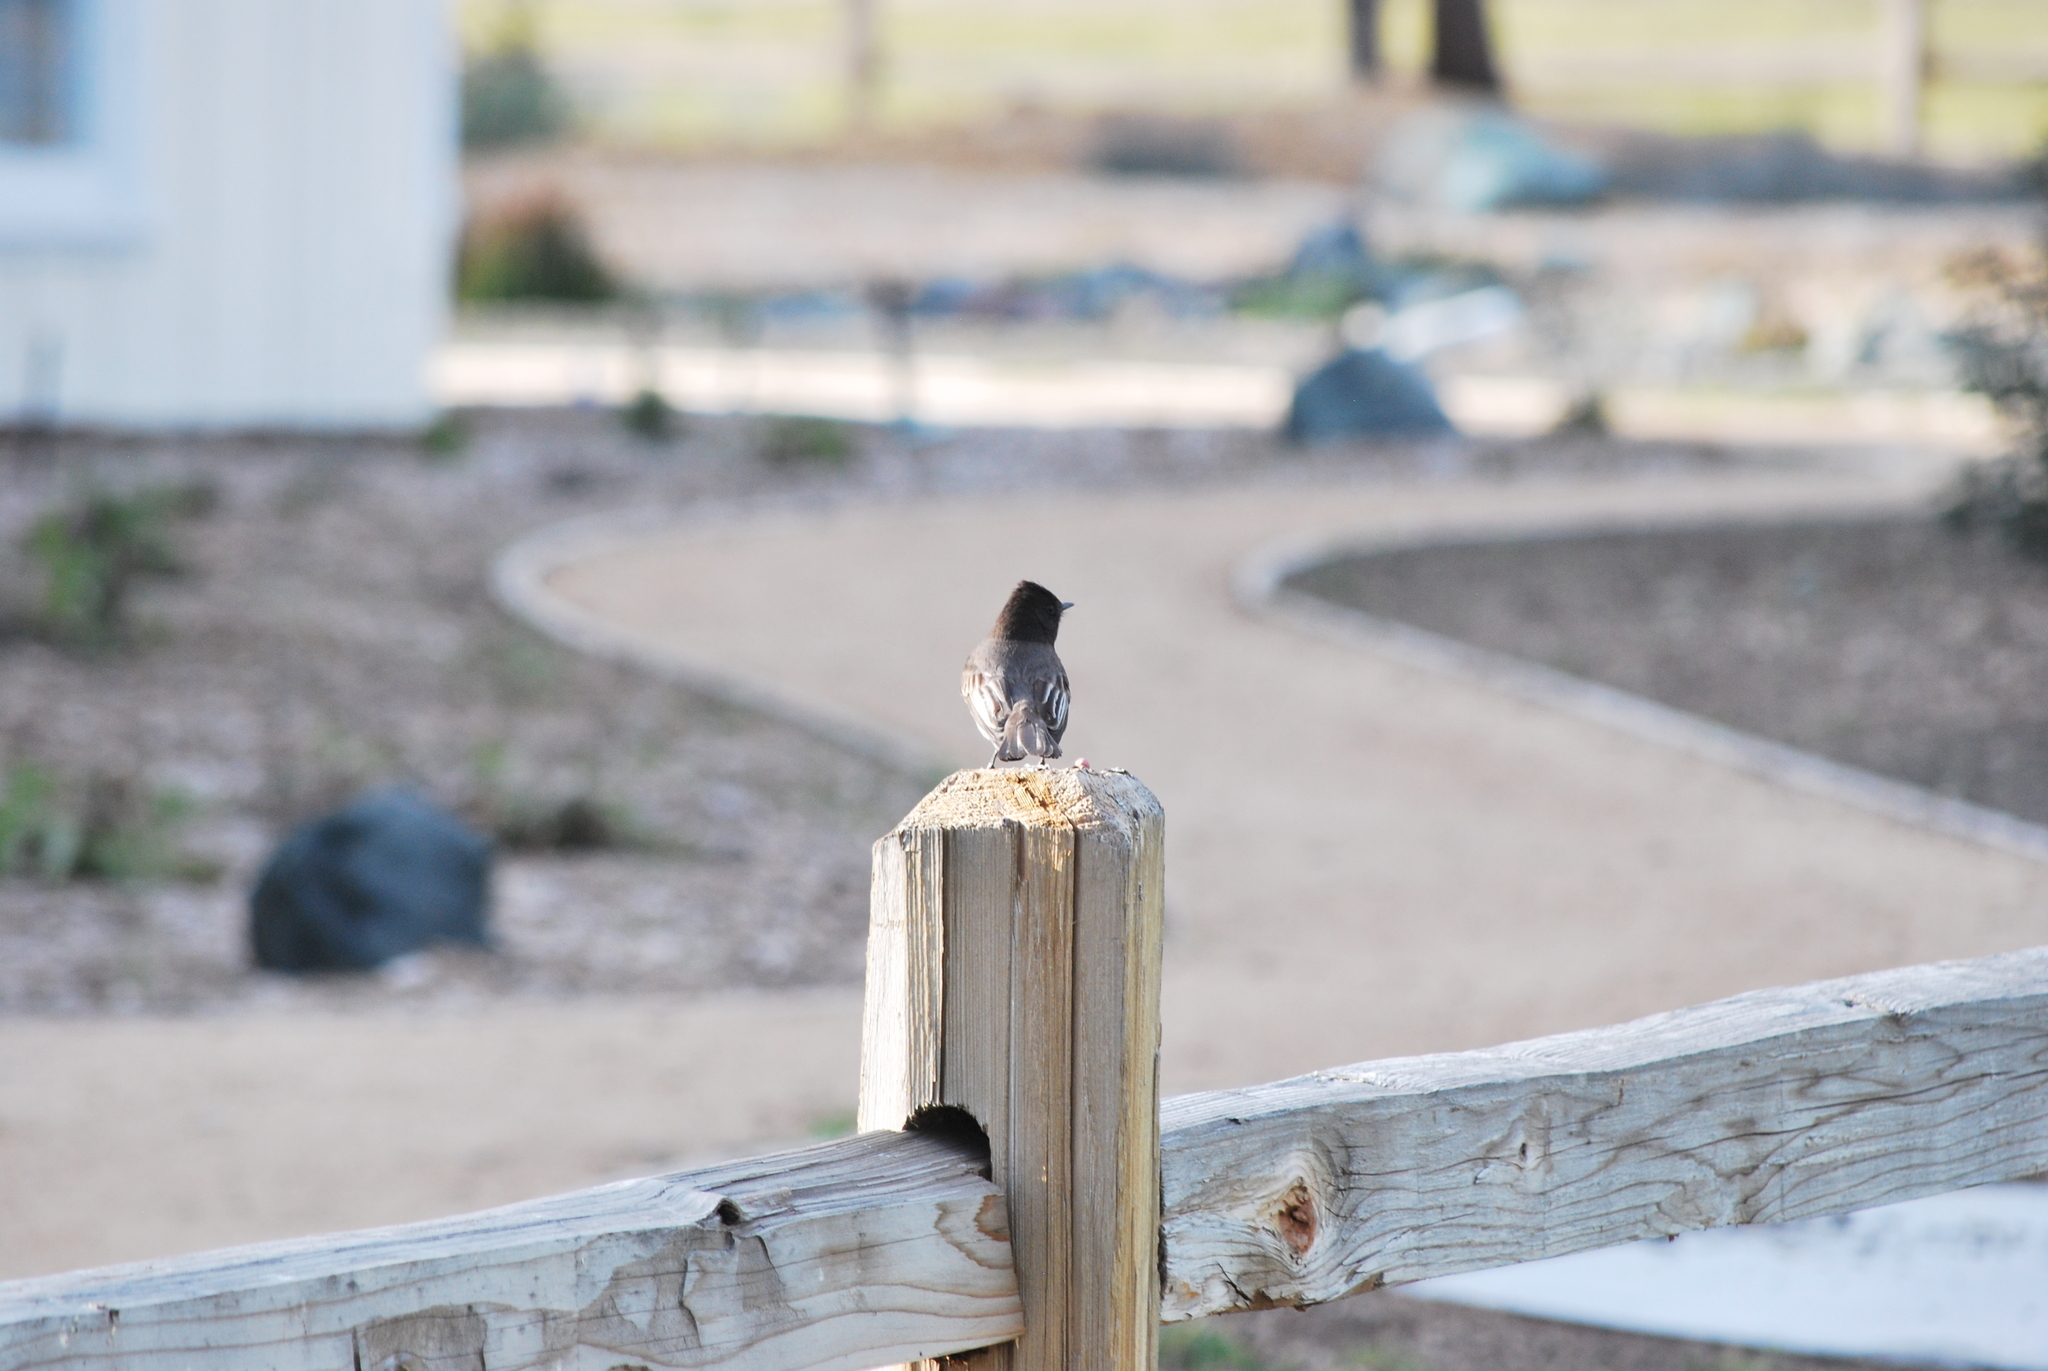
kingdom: Animalia
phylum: Chordata
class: Aves
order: Passeriformes
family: Tyrannidae
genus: Sayornis
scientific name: Sayornis nigricans
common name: Black phoebe
